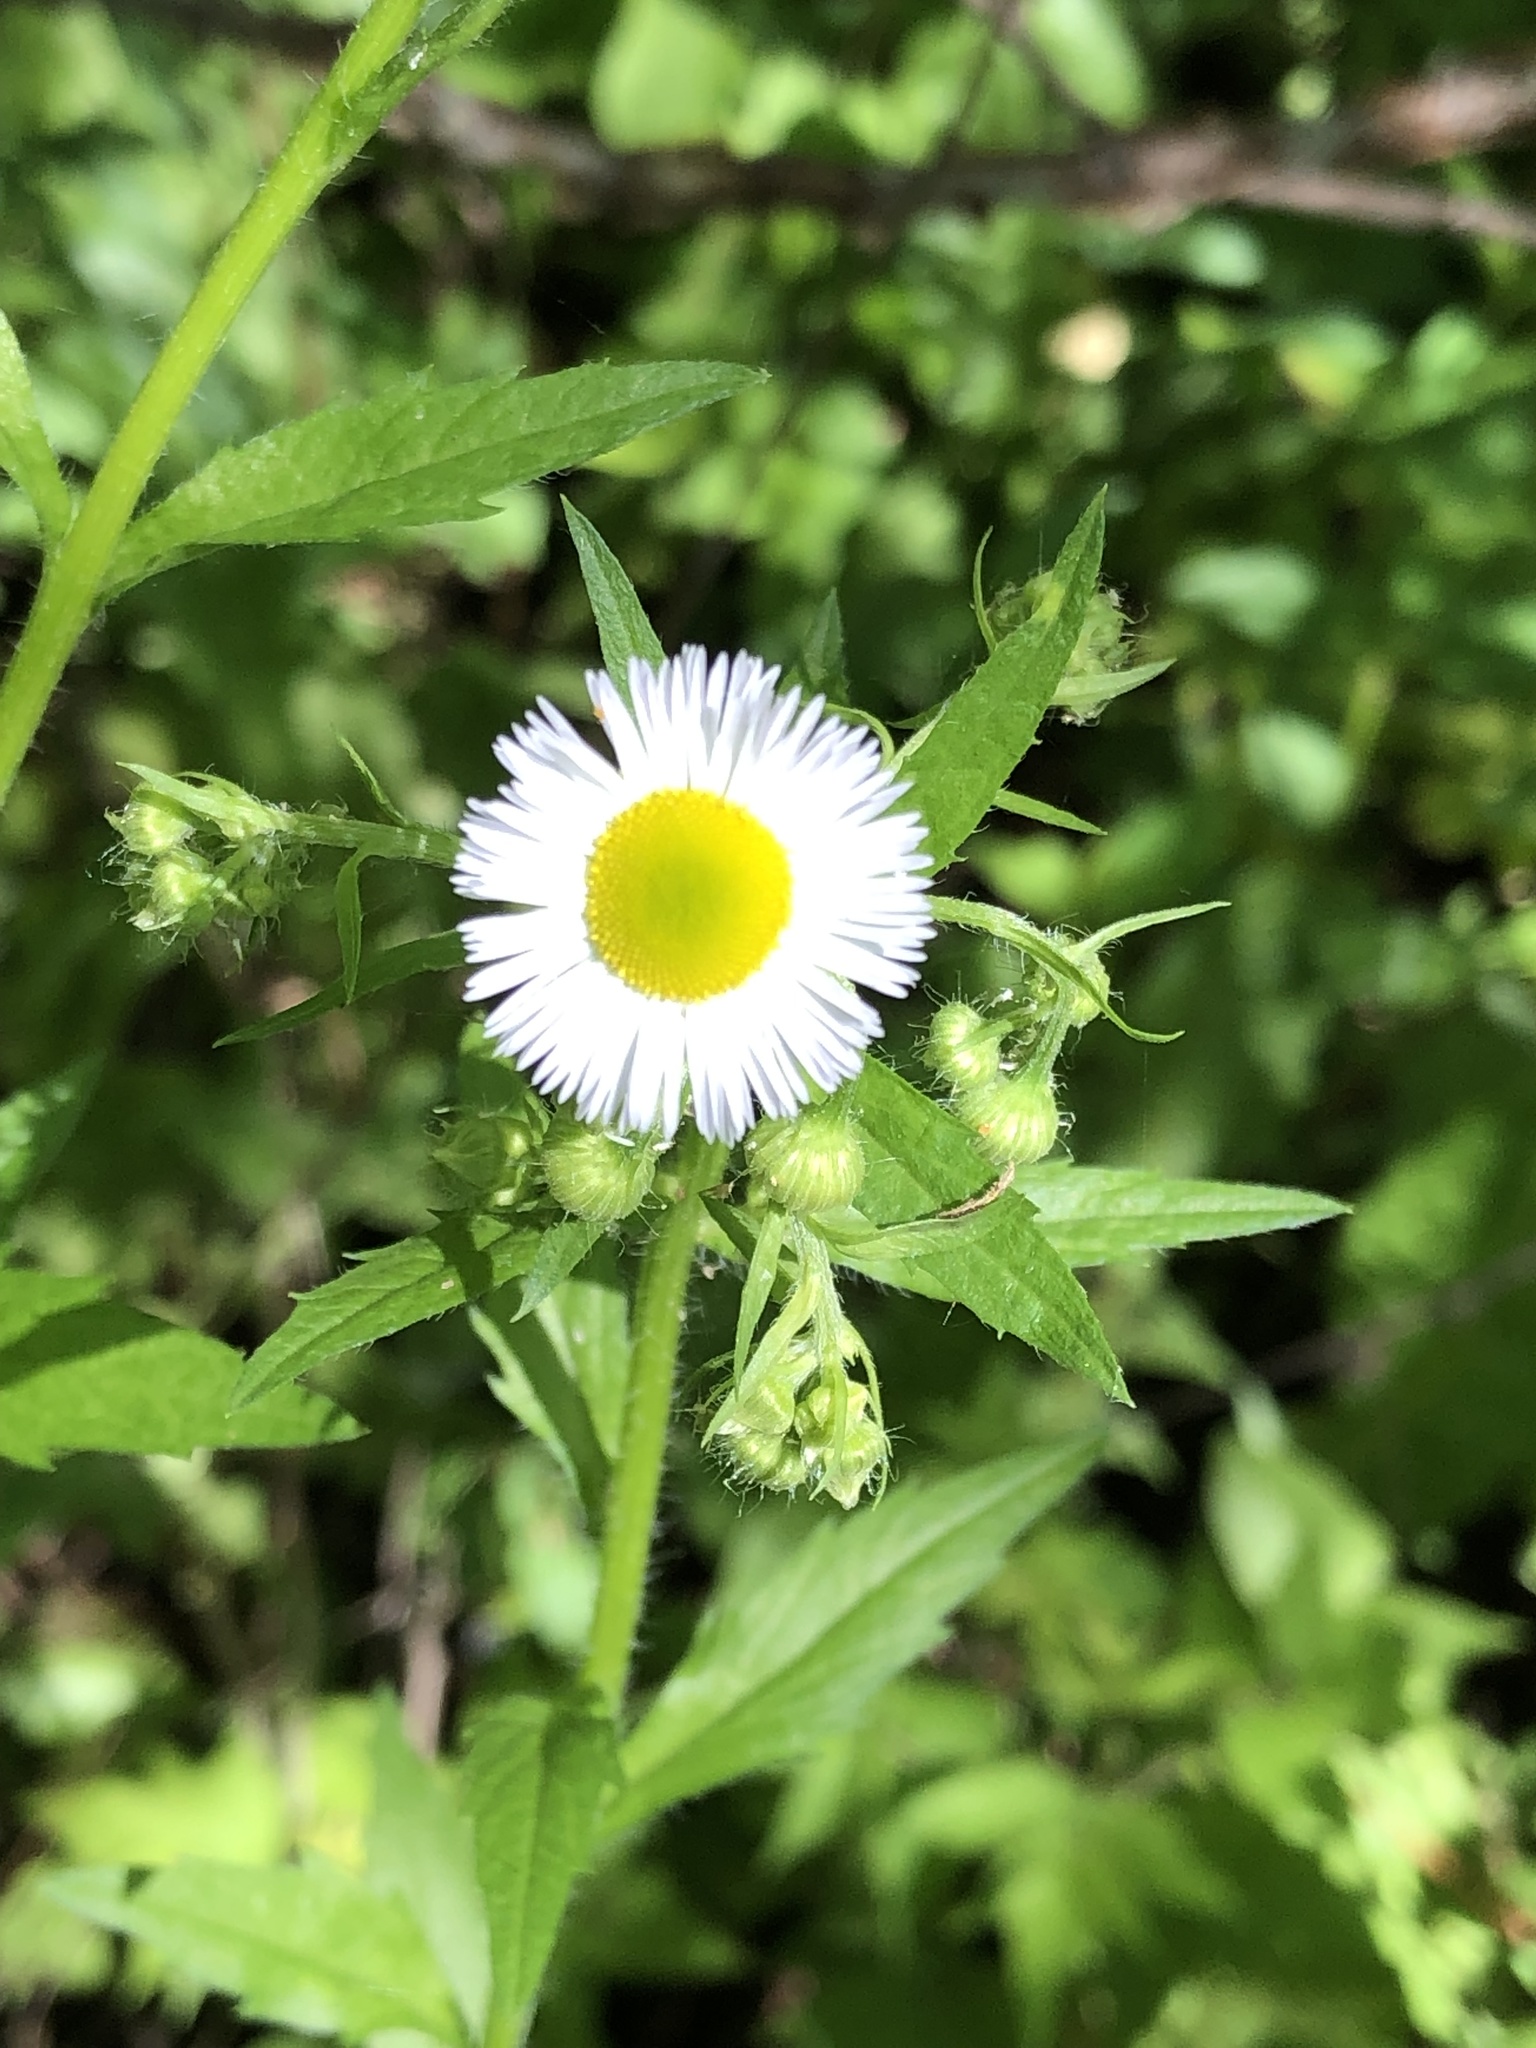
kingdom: Plantae
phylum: Tracheophyta
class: Magnoliopsida
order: Asterales
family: Asteraceae
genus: Erigeron
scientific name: Erigeron annuus
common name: Tall fleabane
